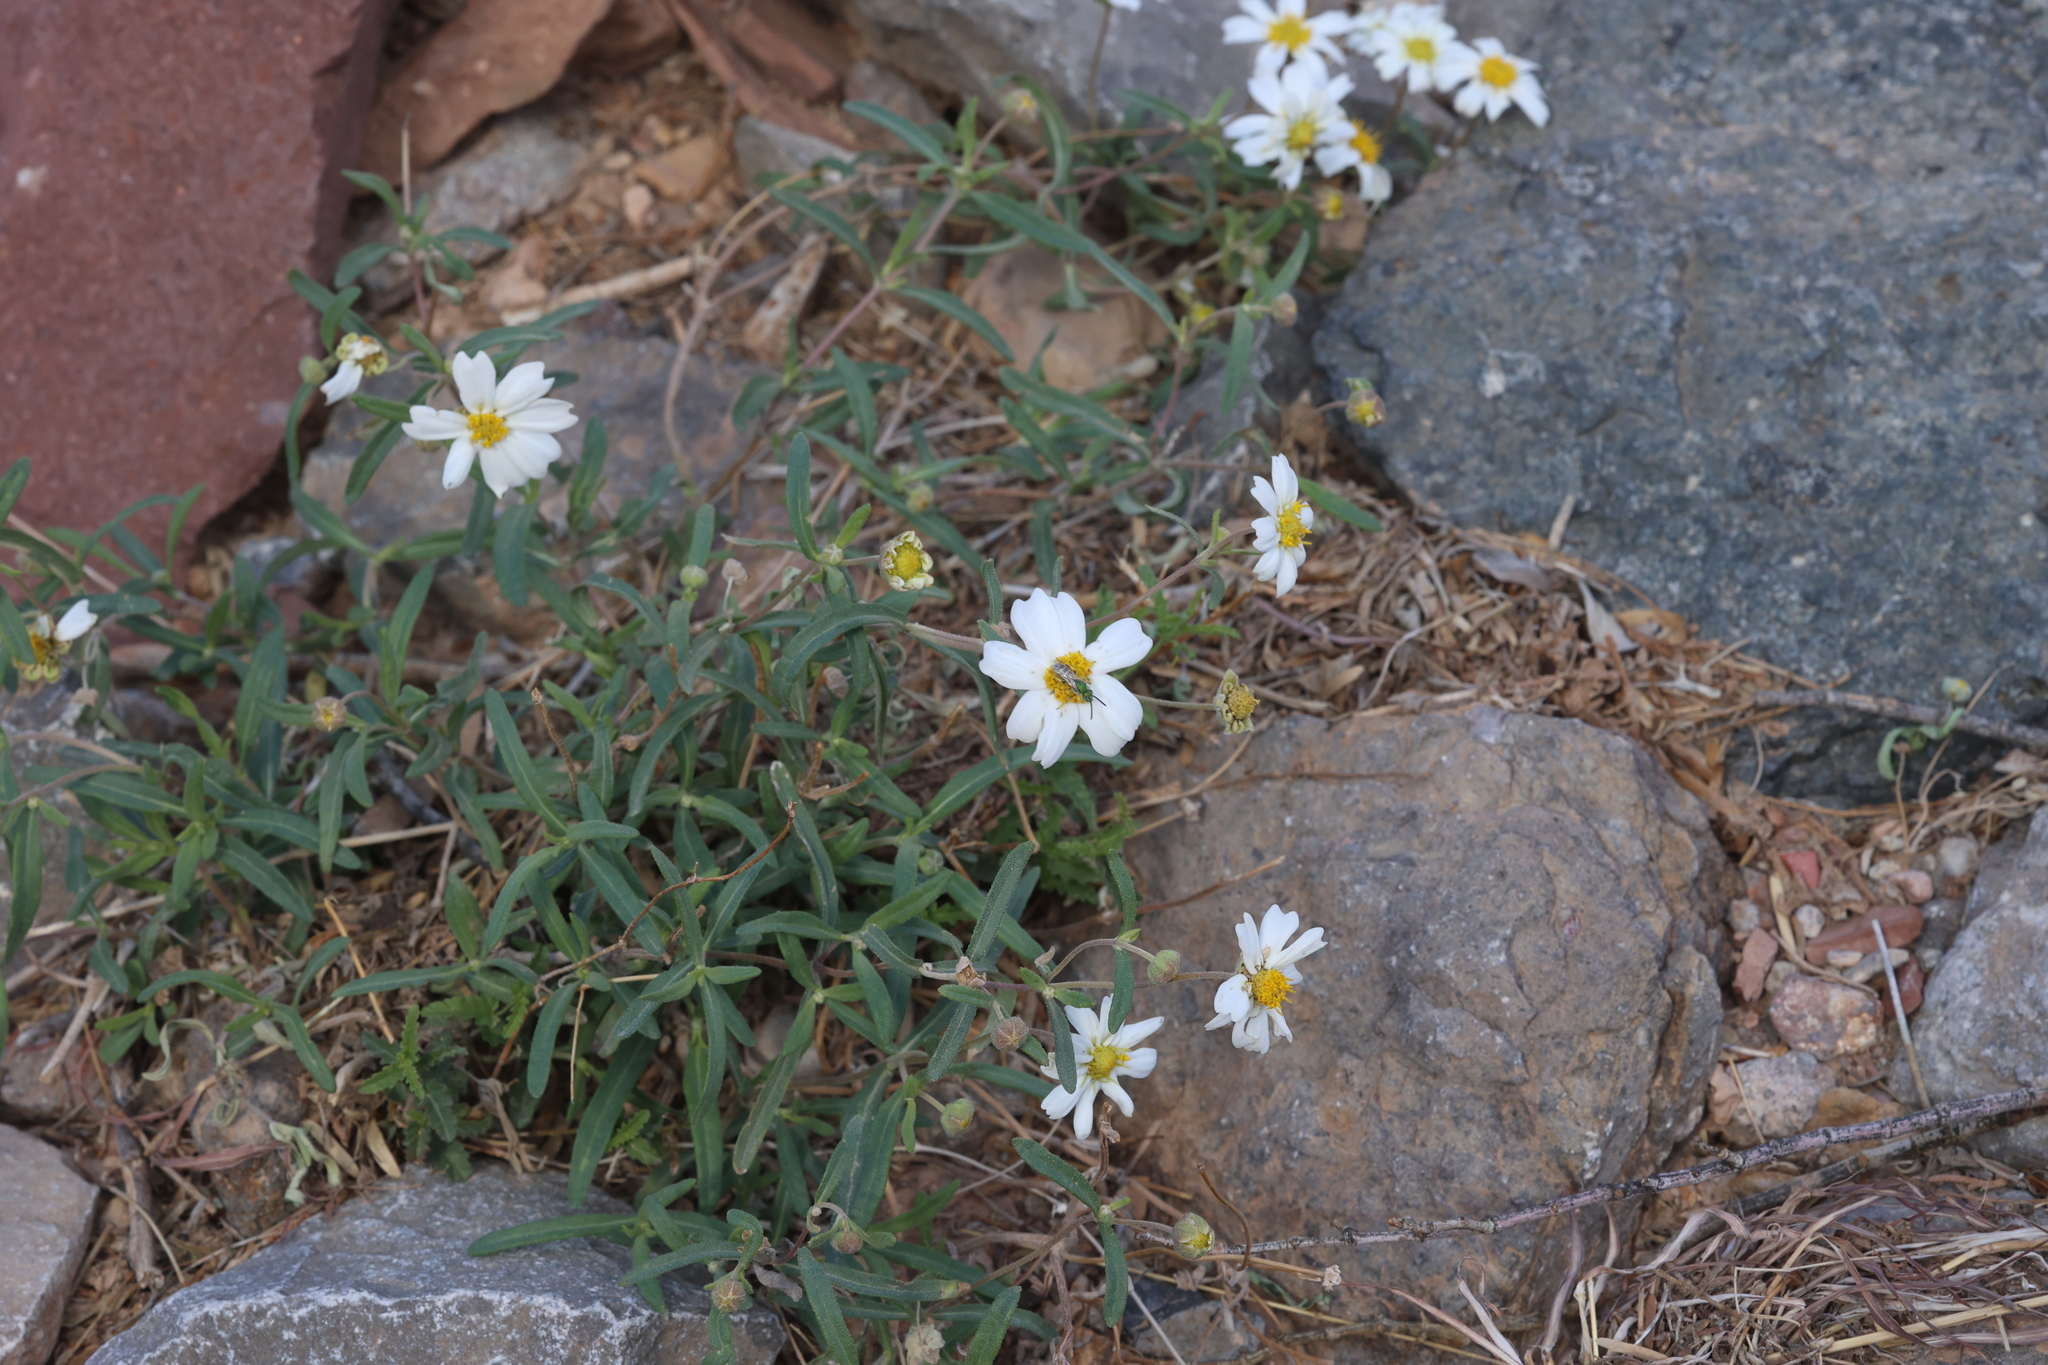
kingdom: Plantae
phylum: Tracheophyta
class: Magnoliopsida
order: Asterales
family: Asteraceae
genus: Melampodium
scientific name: Melampodium leucanthum
